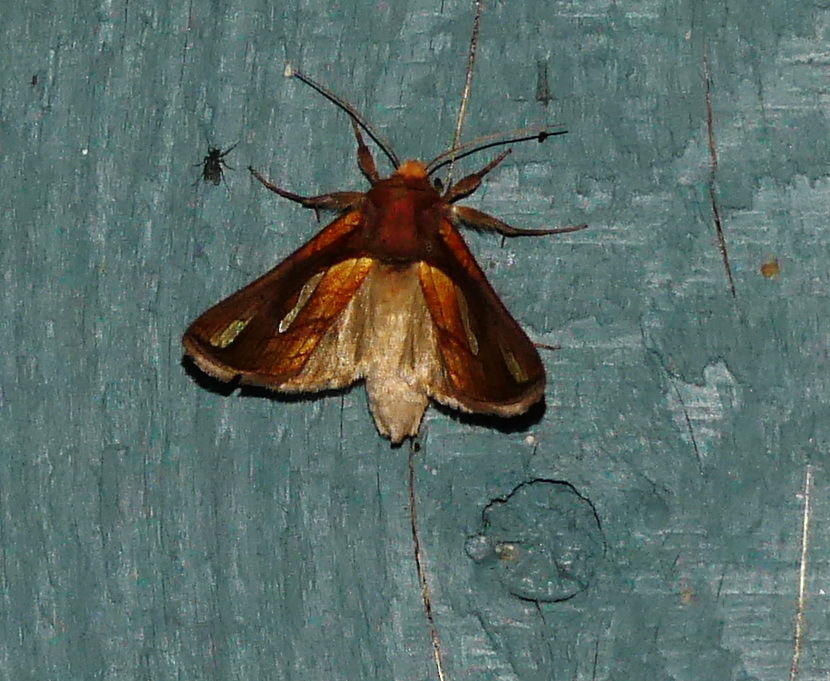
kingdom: Animalia
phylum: Arthropoda
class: Insecta
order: Lepidoptera
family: Noctuidae
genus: Plusia
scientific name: Plusia contexta
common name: Connected looper moth
